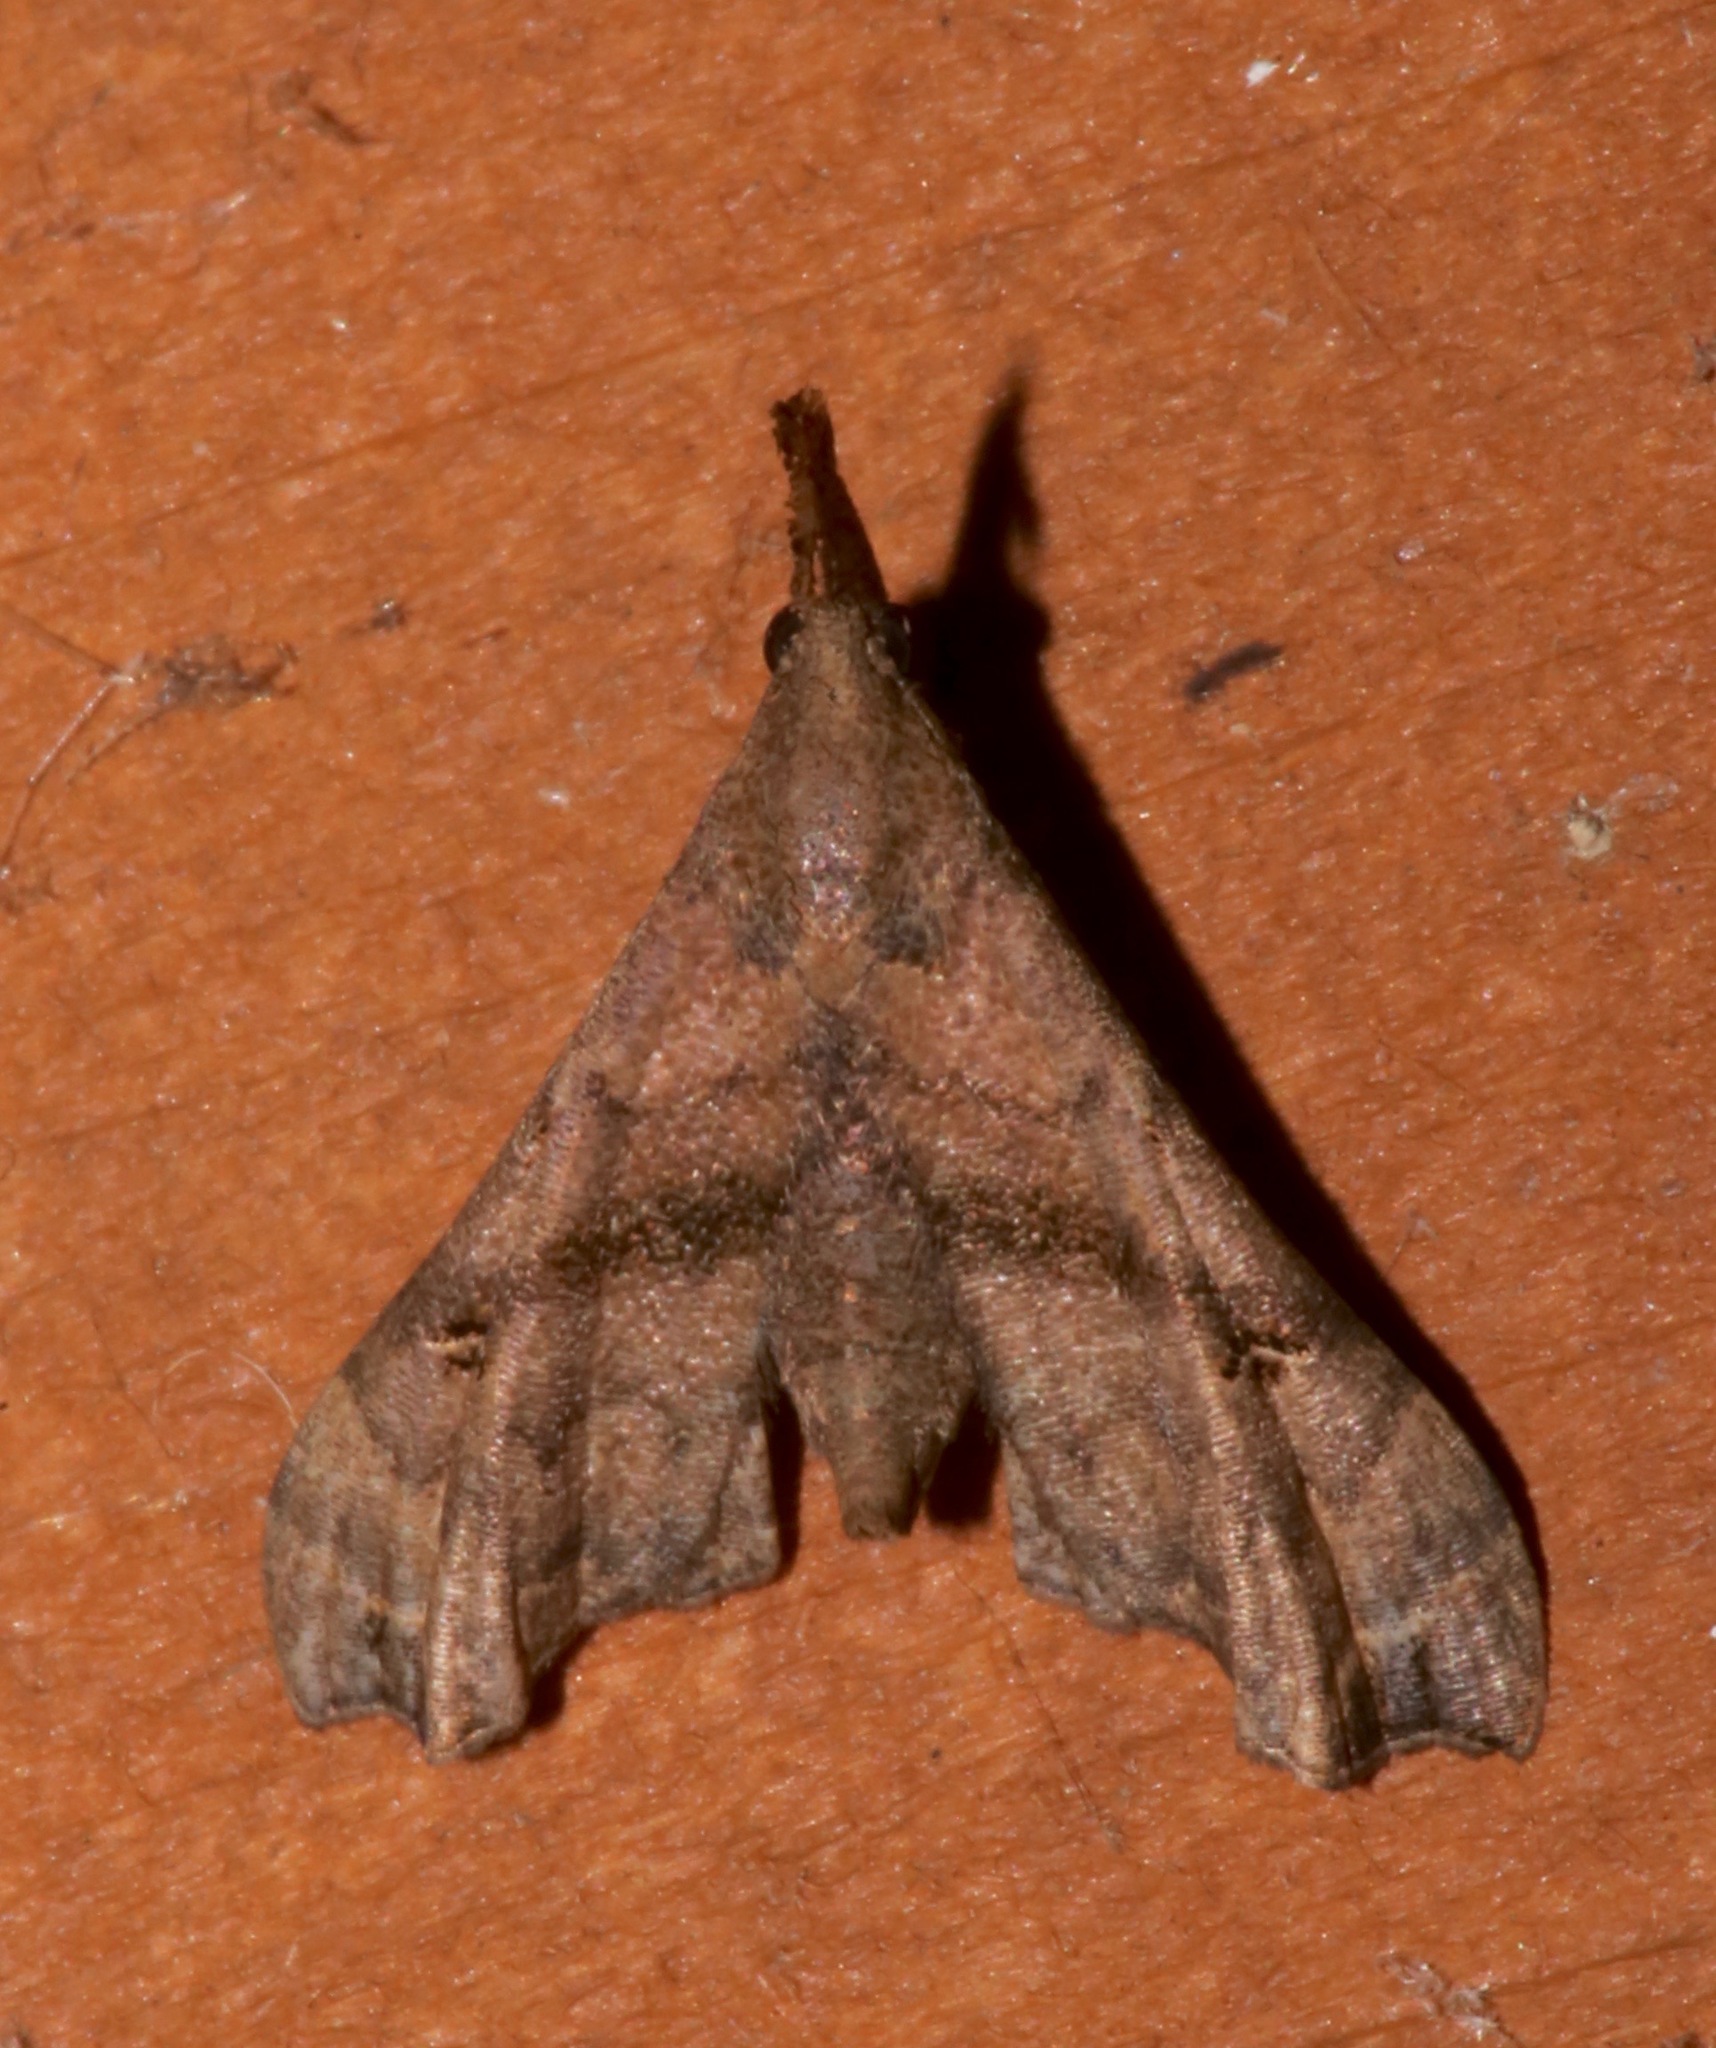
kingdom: Animalia
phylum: Arthropoda
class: Insecta
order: Lepidoptera
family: Erebidae
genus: Palthis
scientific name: Palthis asopialis
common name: Faint-spotted palthis moth
